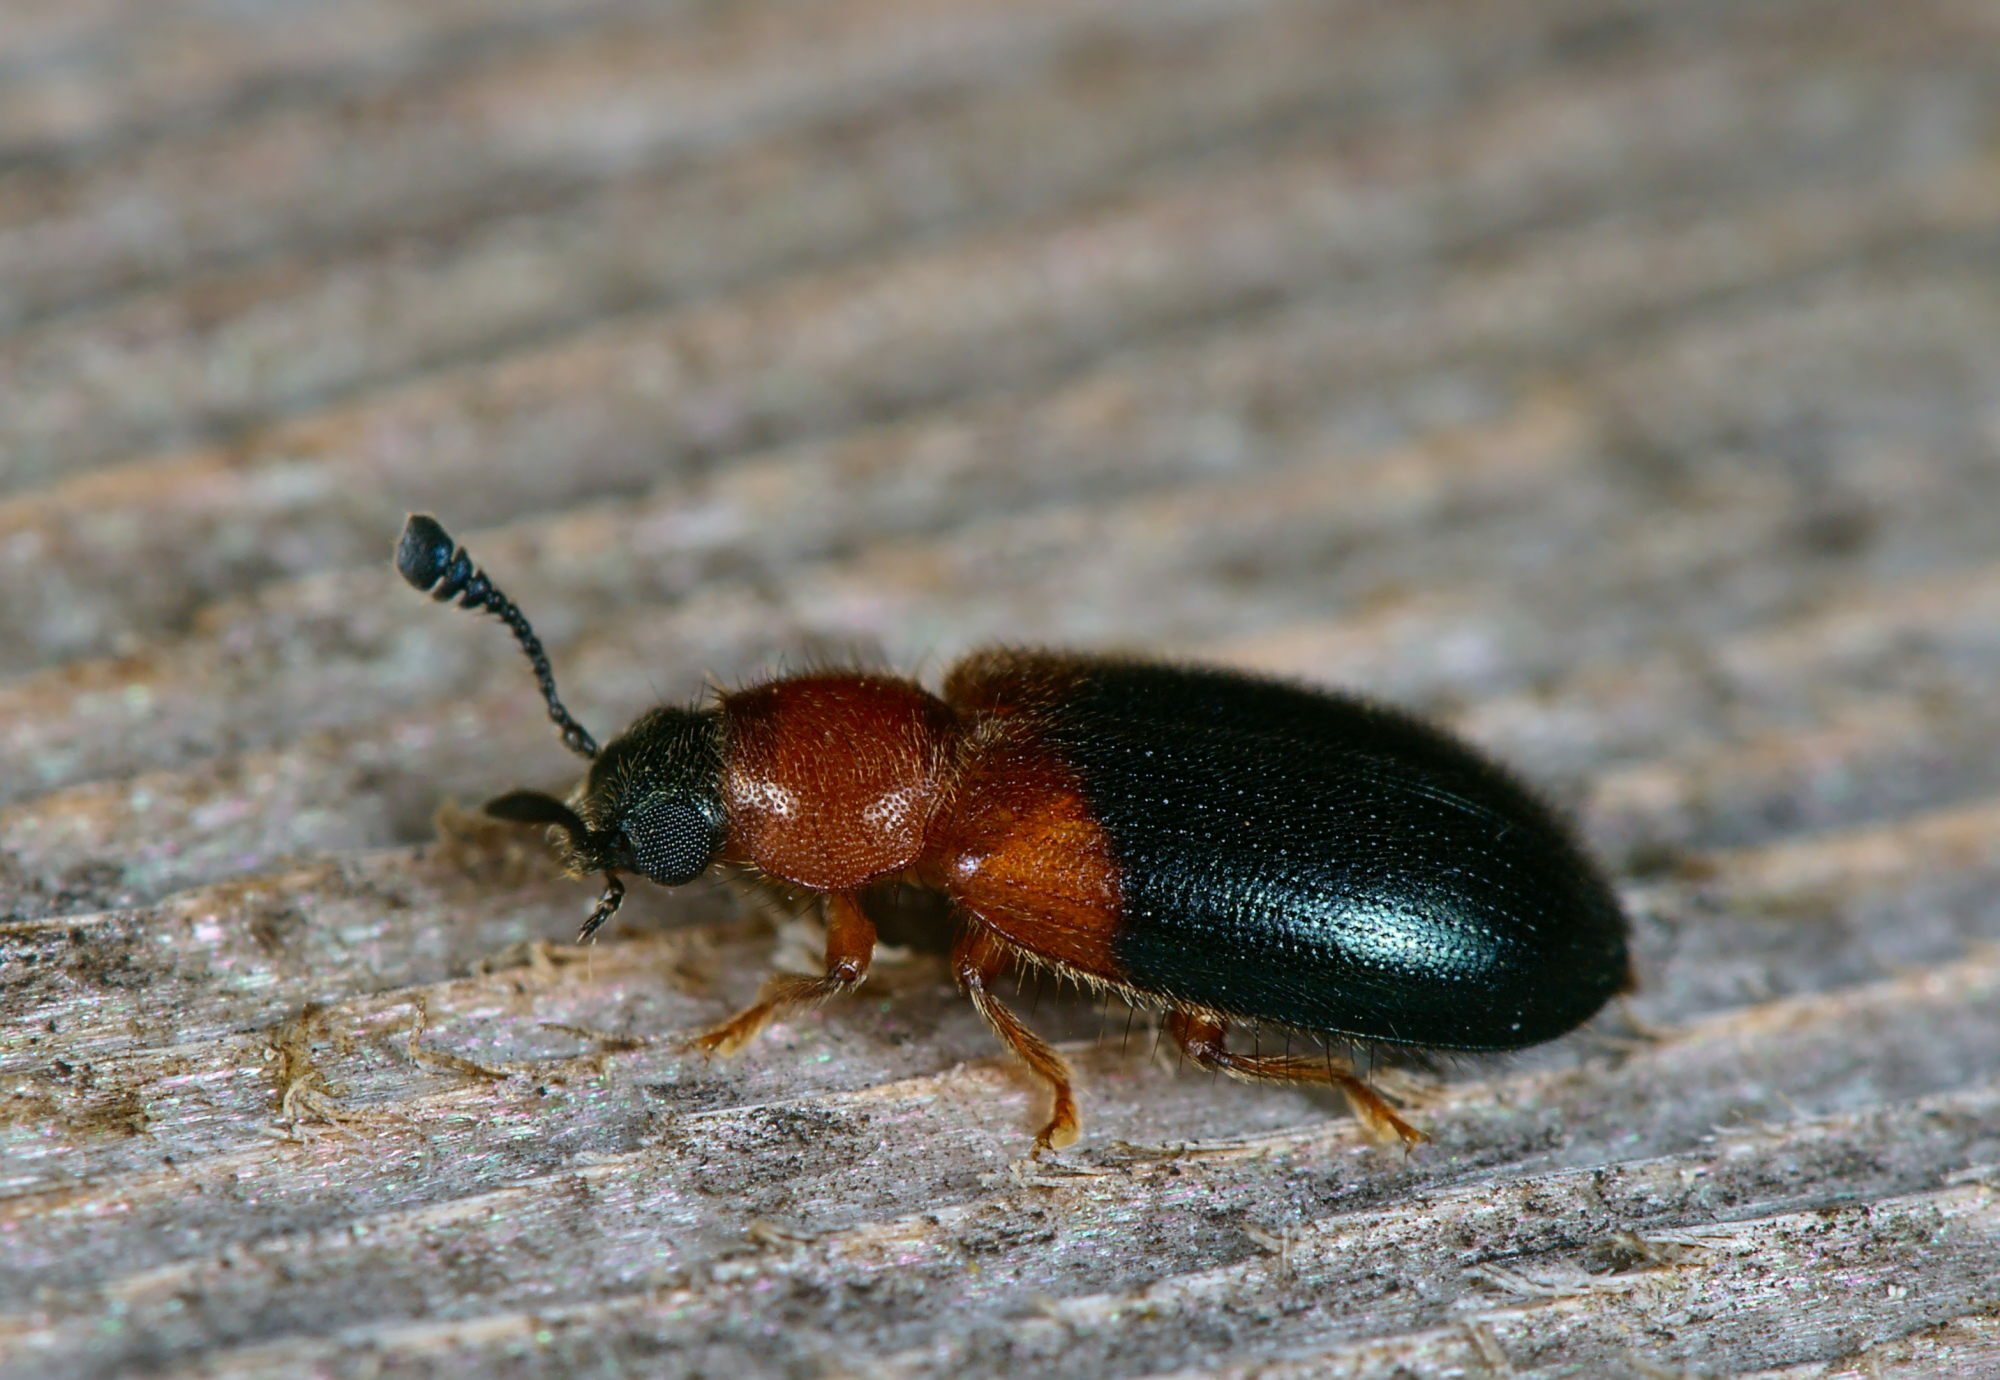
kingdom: Animalia
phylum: Arthropoda
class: Insecta
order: Coleoptera
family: Cleridae
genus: Necrobia
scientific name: Necrobia ruficollis
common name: Redshouldered ham beetle
